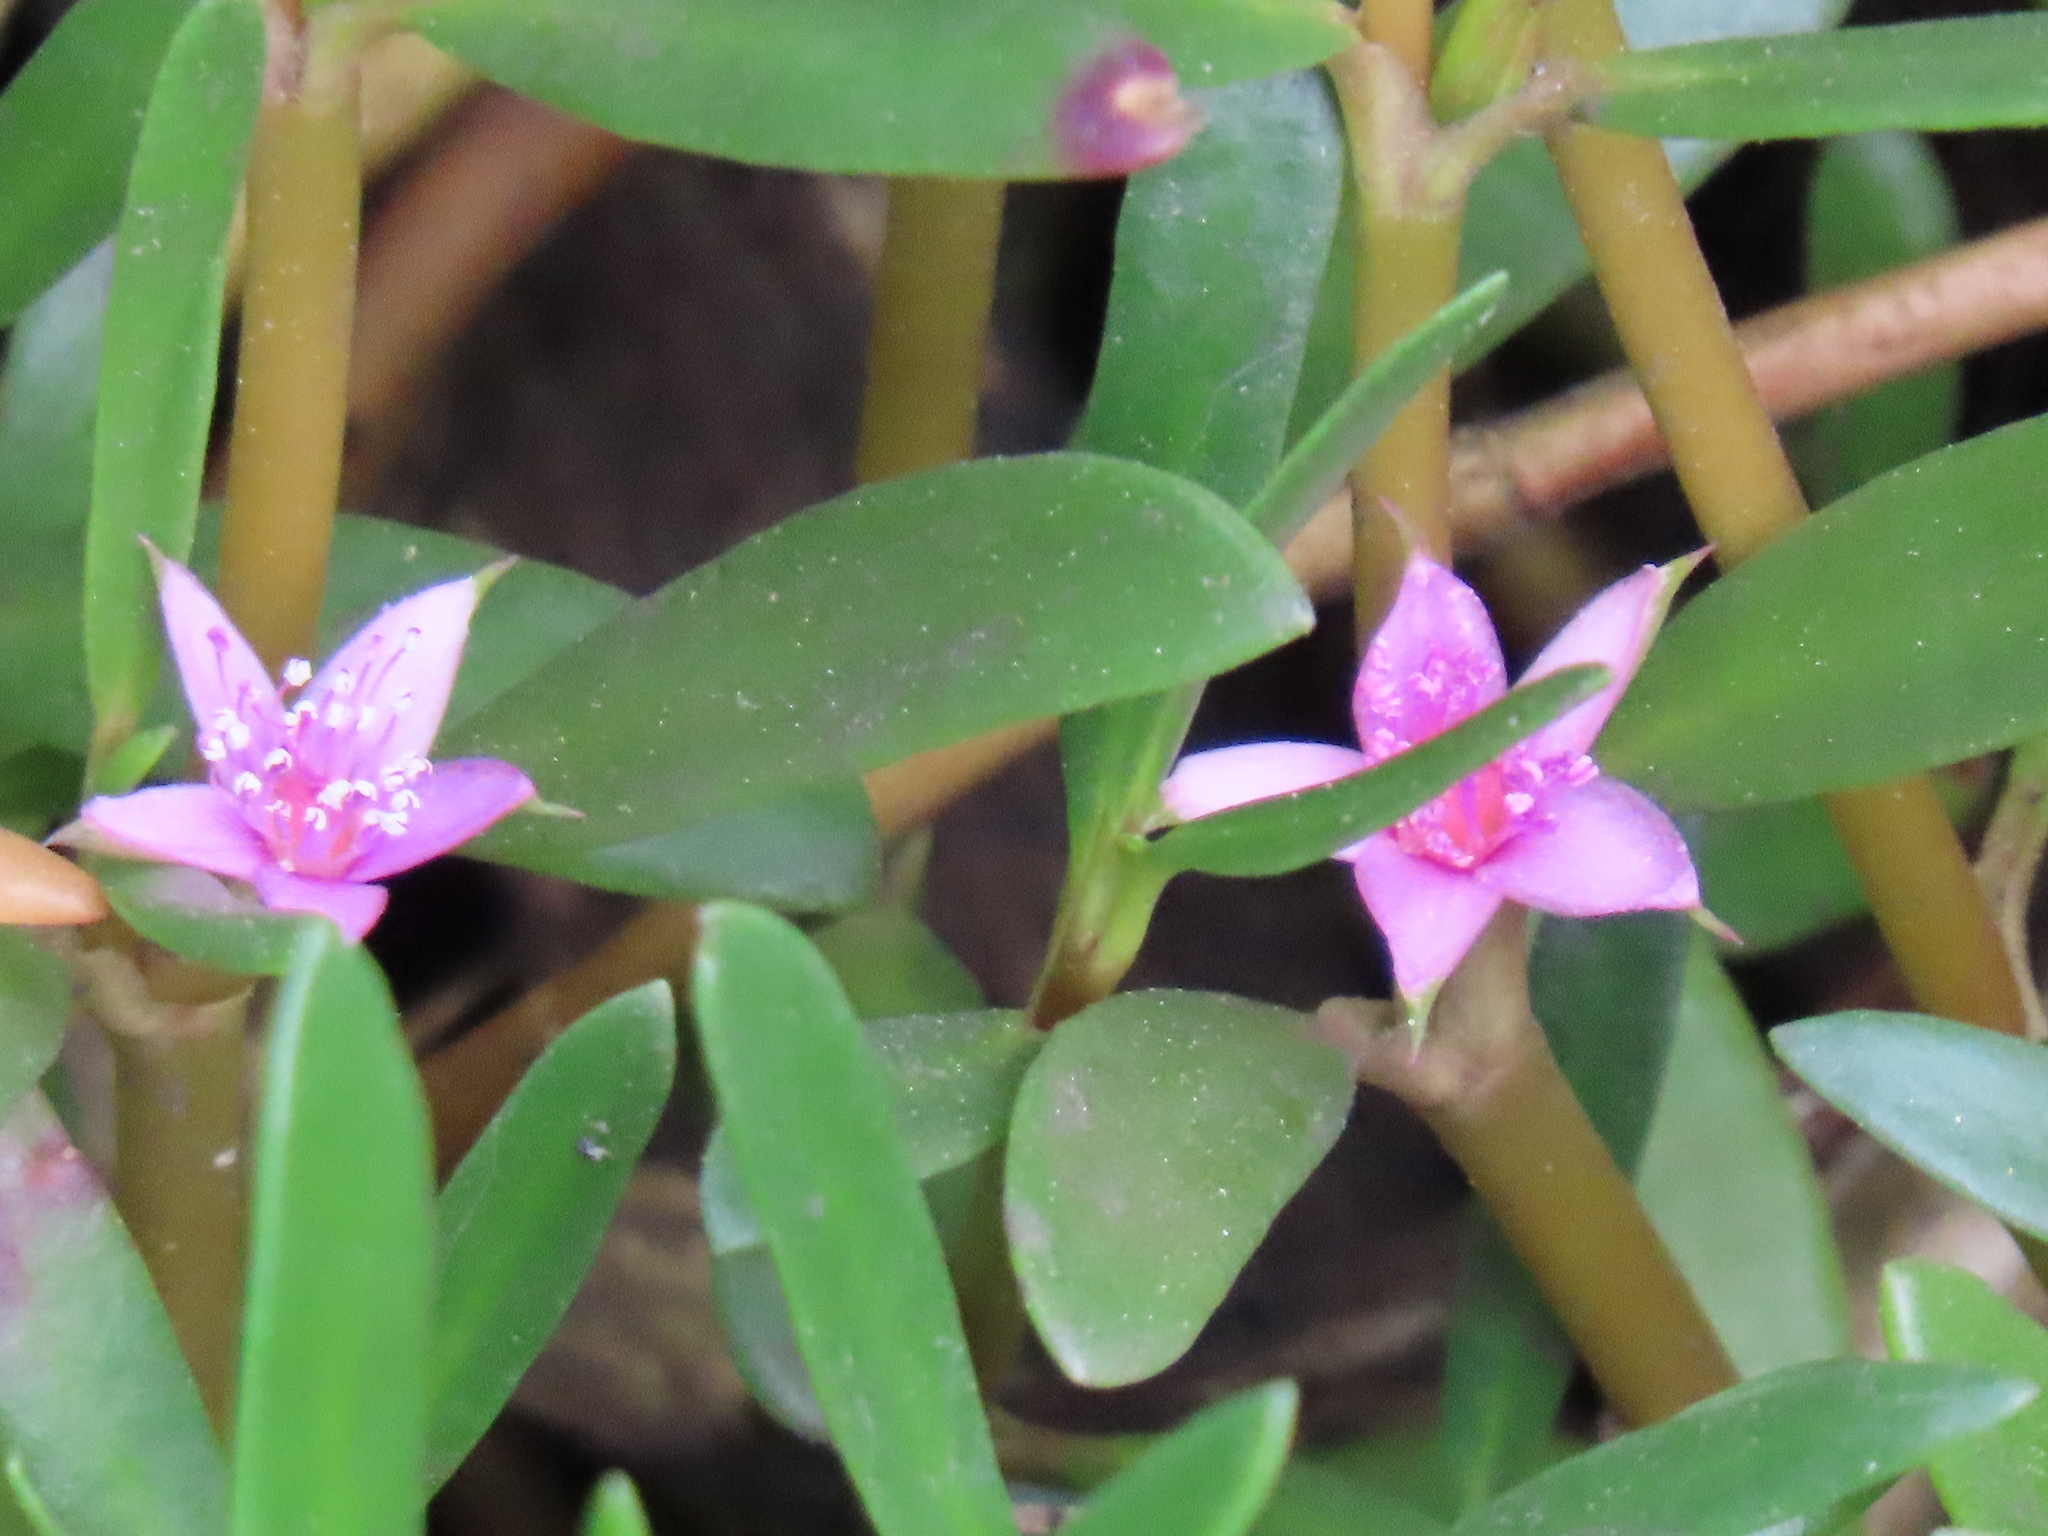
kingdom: Plantae
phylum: Tracheophyta
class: Magnoliopsida
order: Caryophyllales
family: Aizoaceae
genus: Sesuvium
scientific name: Sesuvium portulacastrum
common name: Sea-purslane
